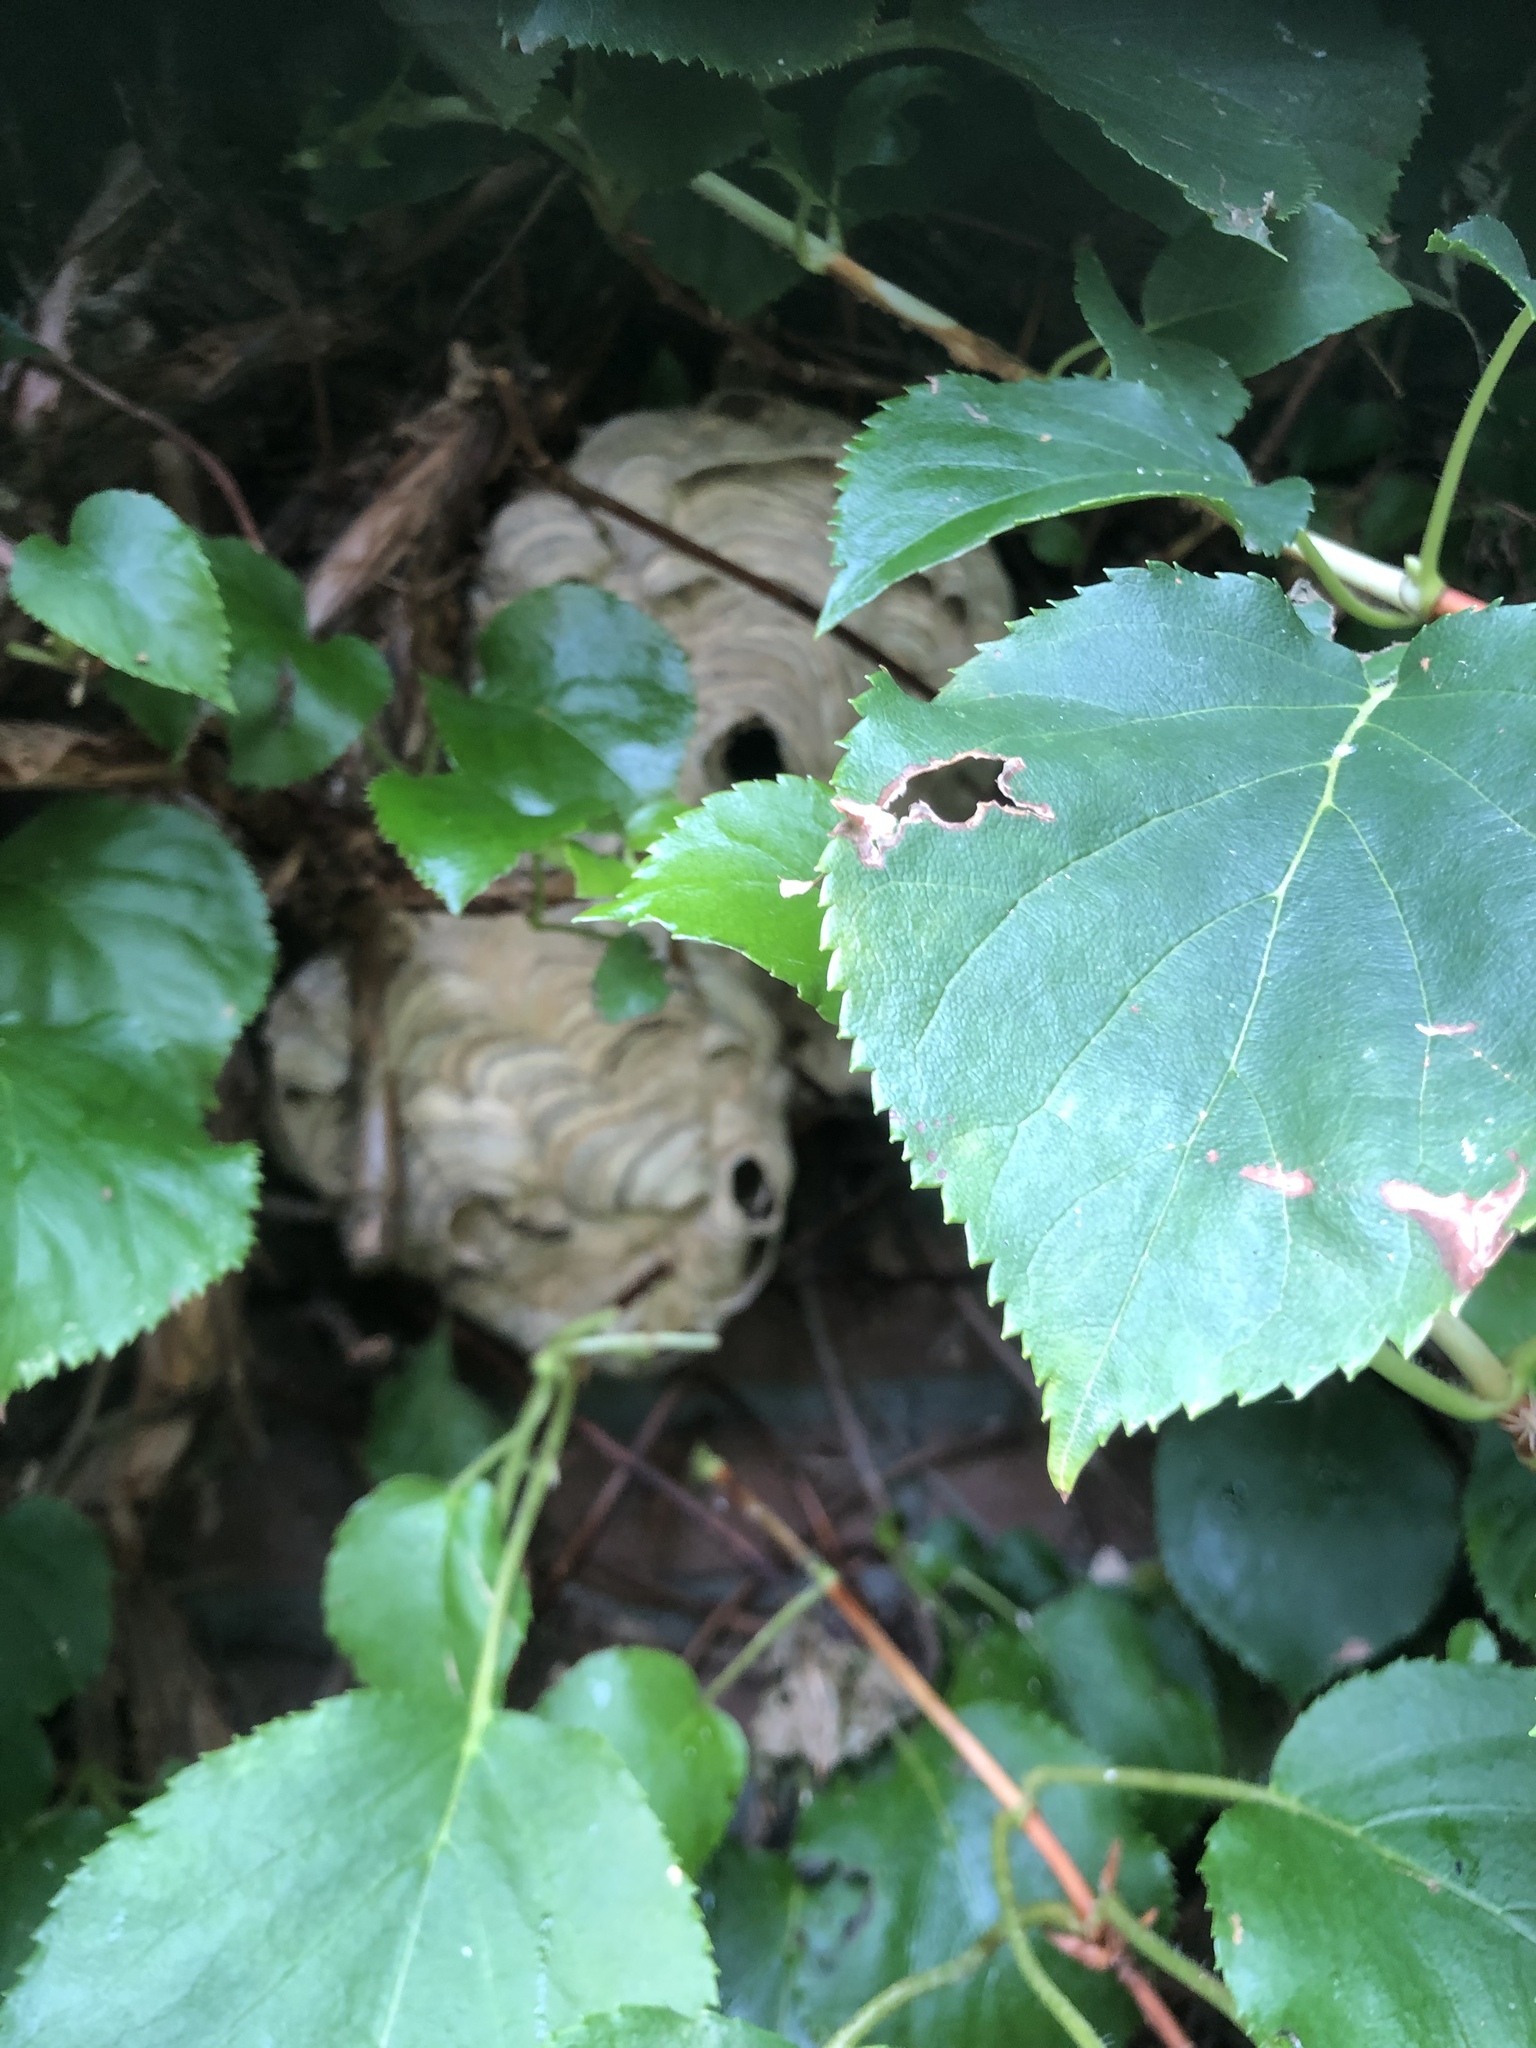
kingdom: Animalia
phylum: Arthropoda
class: Insecta
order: Hymenoptera
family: Vespidae
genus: Vespa
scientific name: Vespa velutina
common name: Asian hornet
